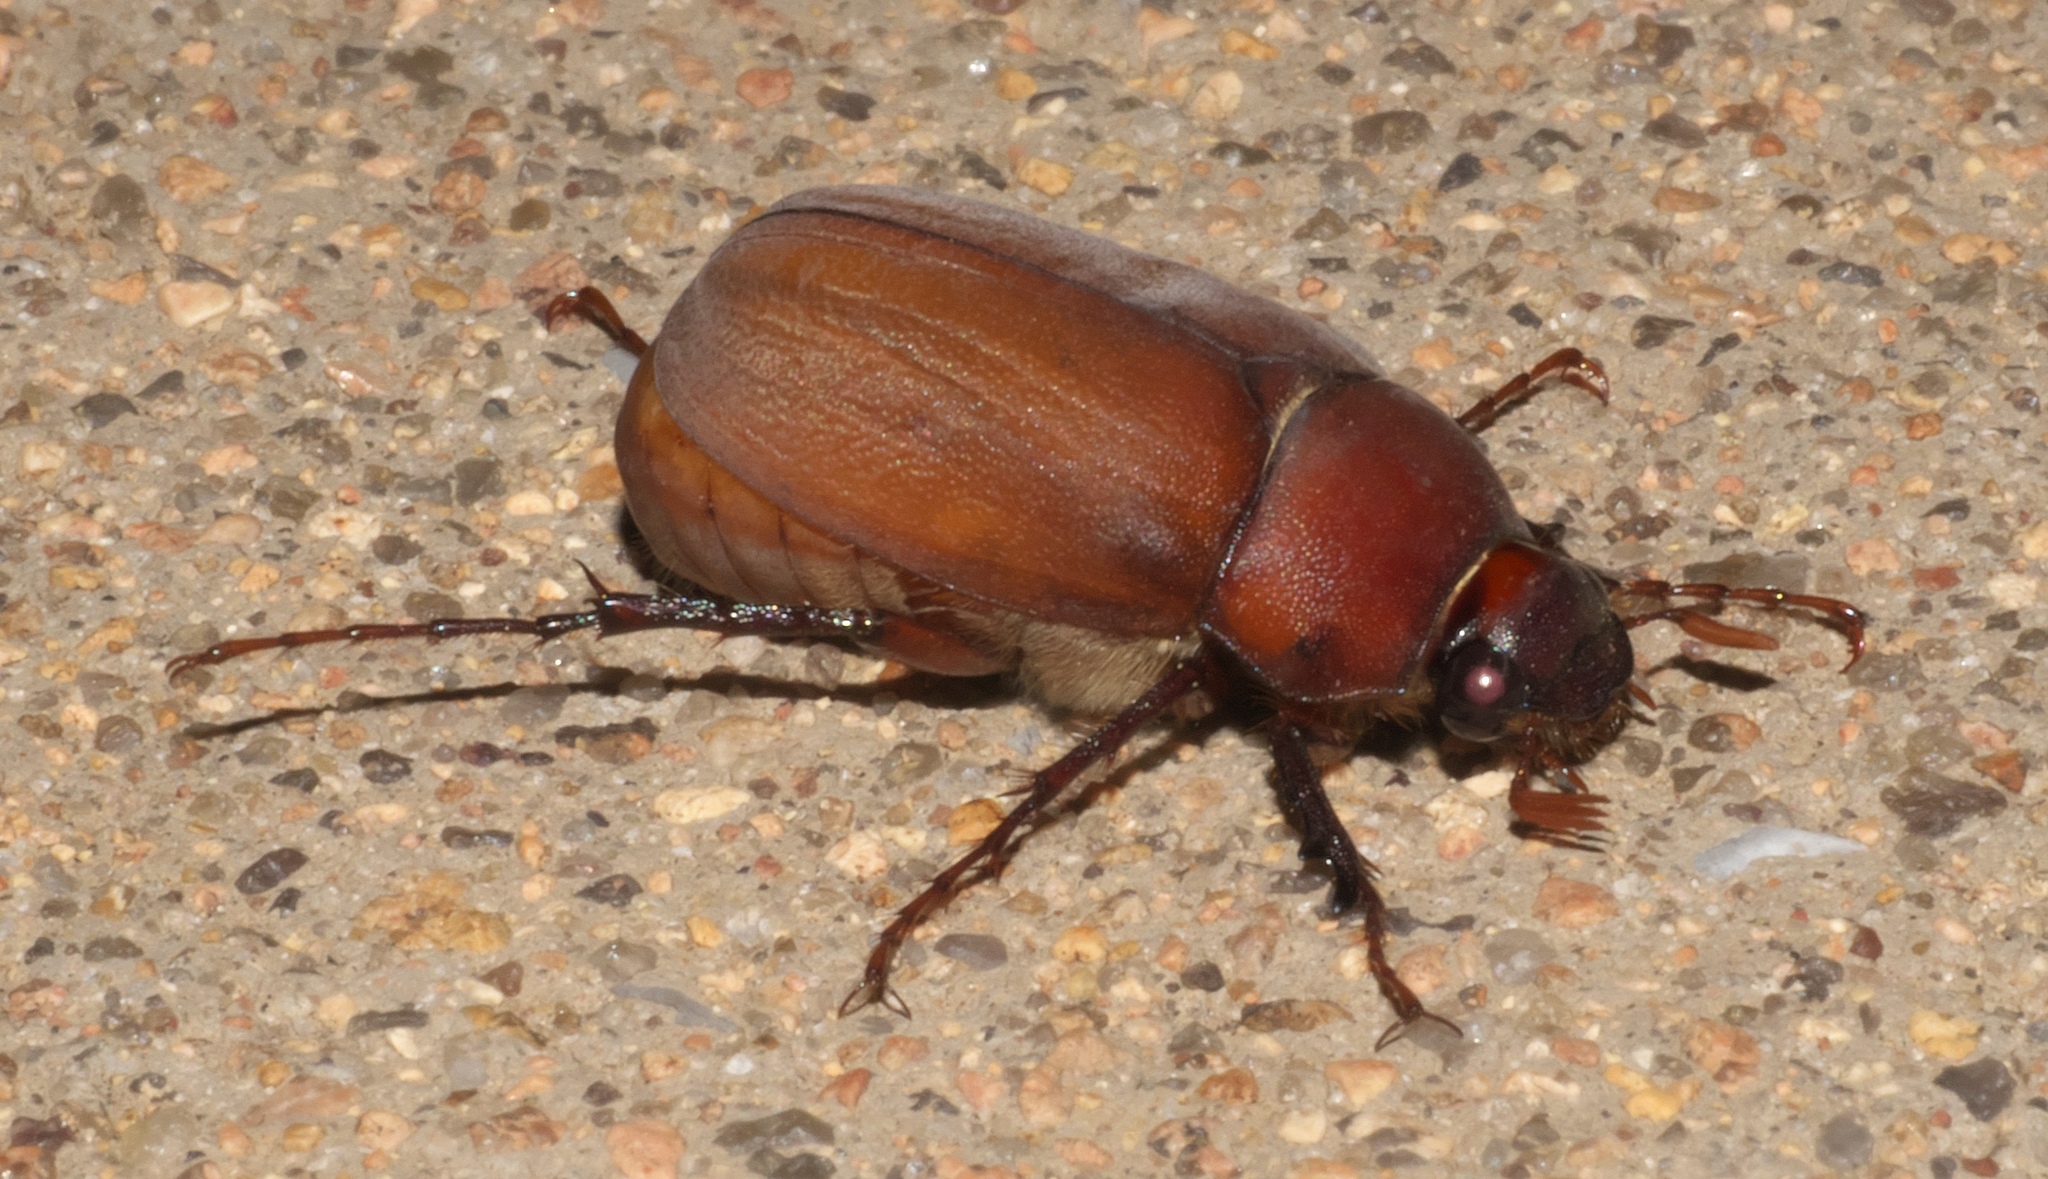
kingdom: Animalia
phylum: Arthropoda
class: Insecta
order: Coleoptera
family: Scarabaeidae
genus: Phyllophaga
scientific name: Phyllophaga submucida
